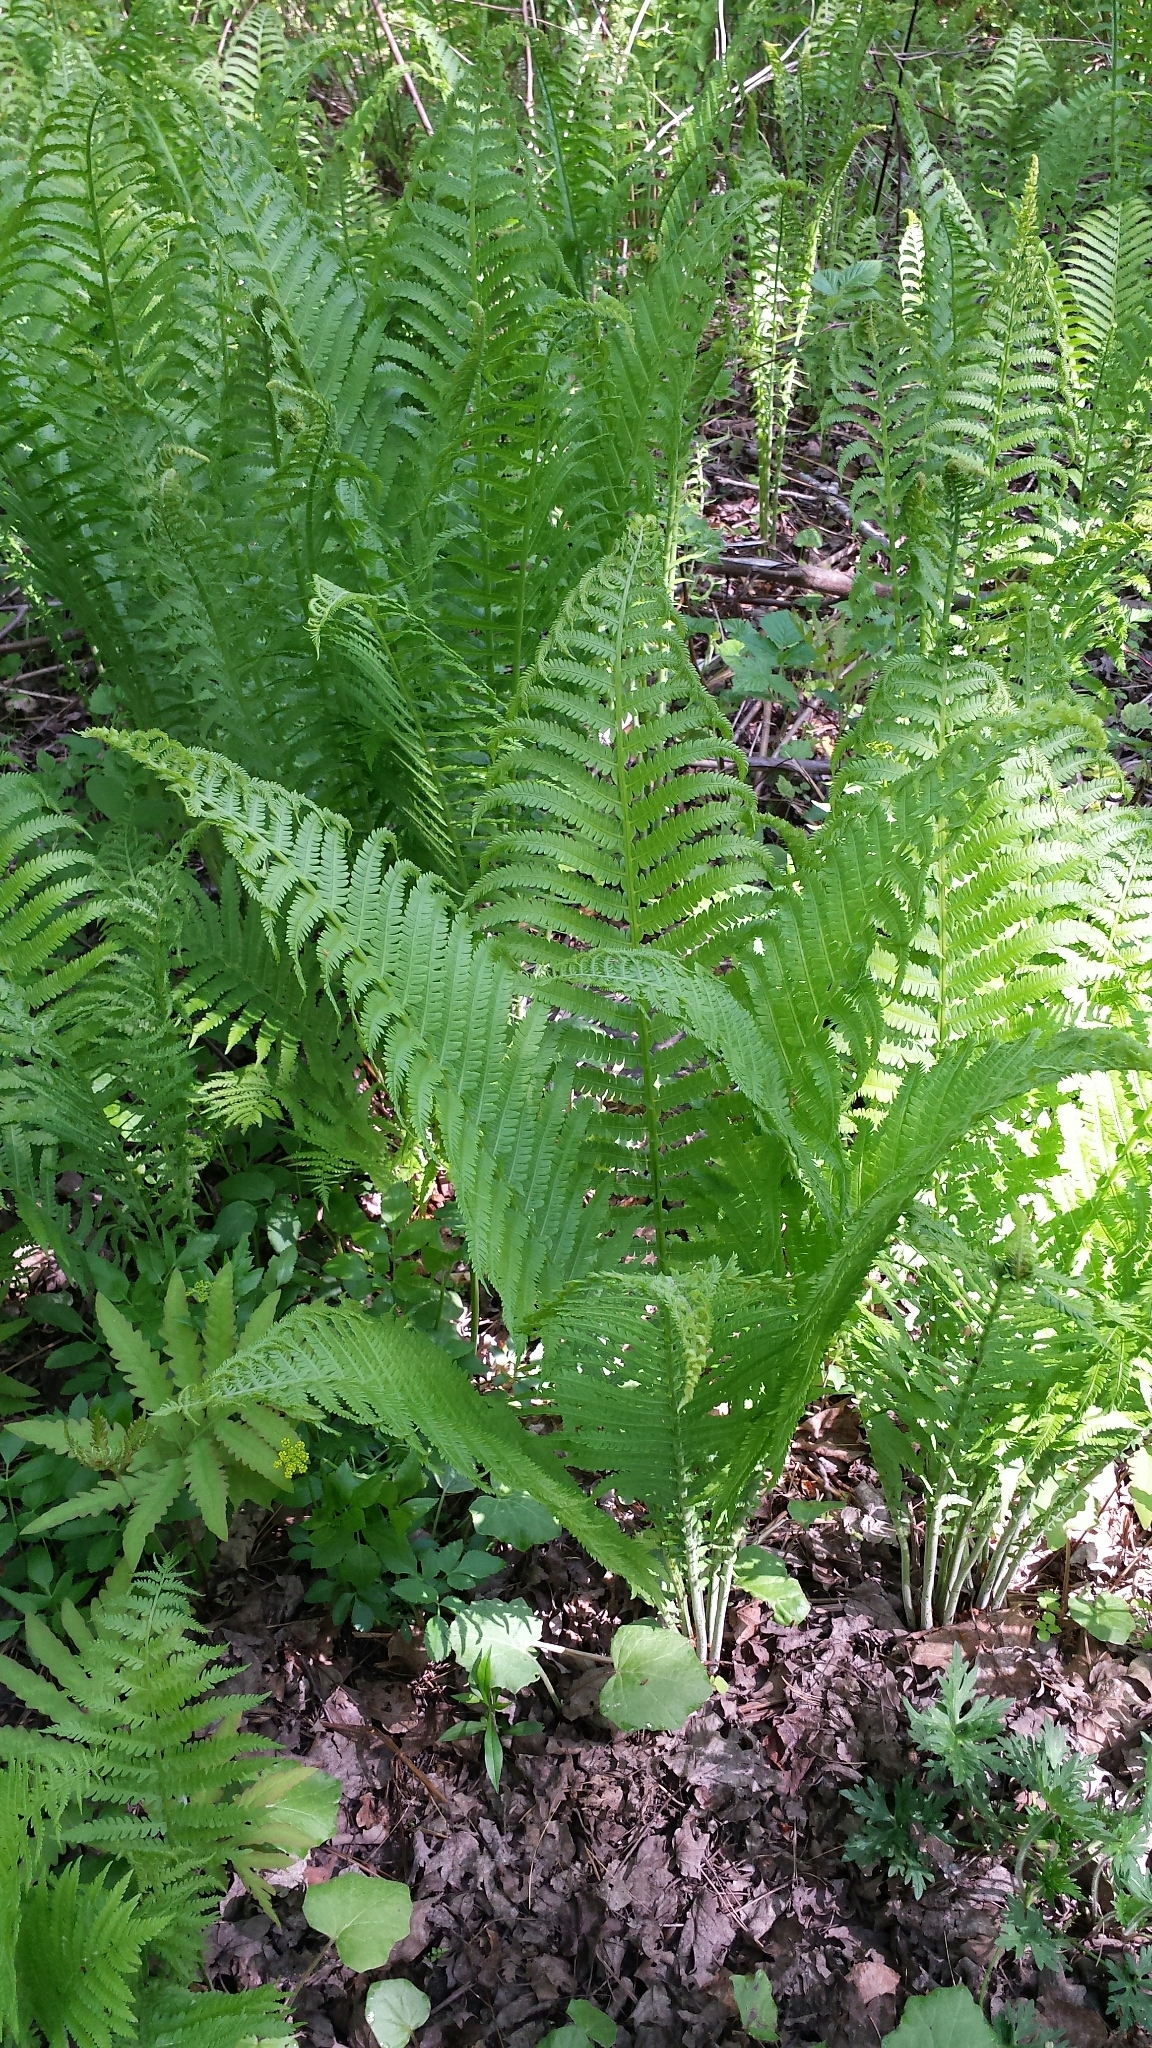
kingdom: Plantae
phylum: Tracheophyta
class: Polypodiopsida
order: Polypodiales
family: Onocleaceae
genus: Matteuccia
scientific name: Matteuccia struthiopteris
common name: Ostrich fern
